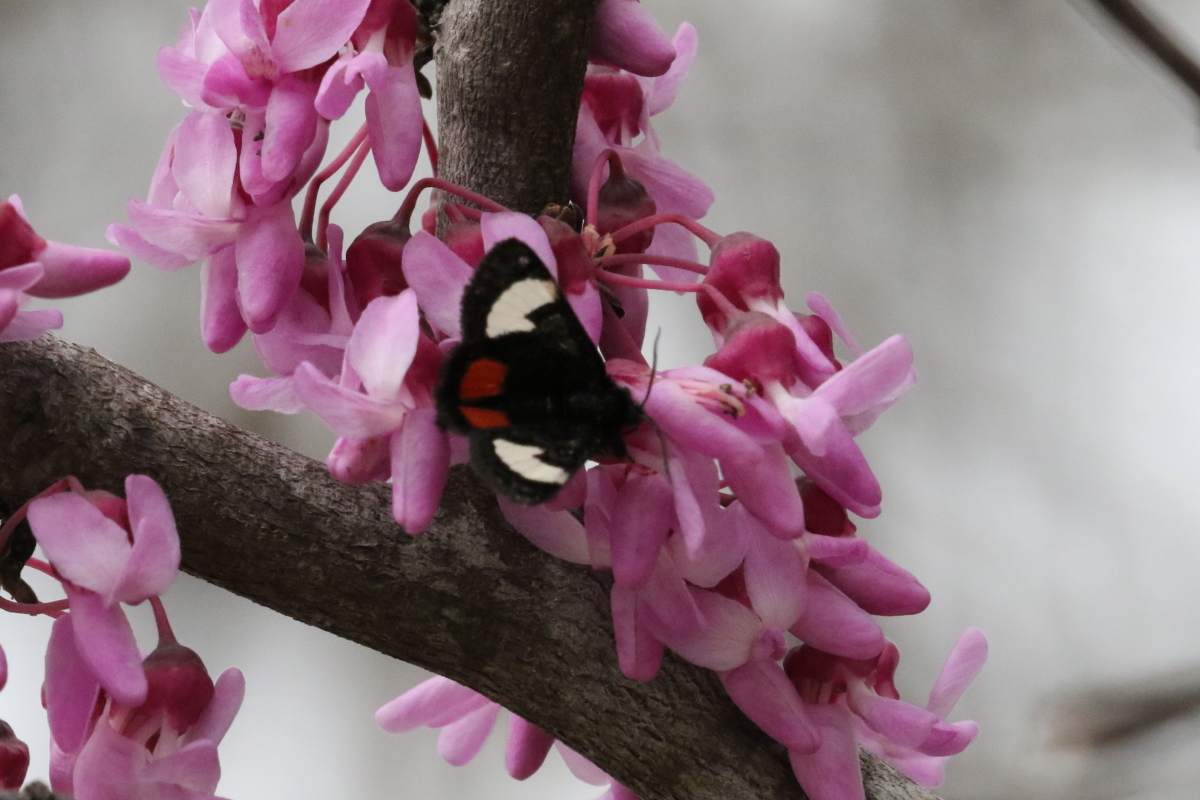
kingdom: Animalia
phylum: Arthropoda
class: Insecta
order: Lepidoptera
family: Noctuidae
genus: Psychomorpha
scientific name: Psychomorpha epimenis
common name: Grapevine epimenis moth
